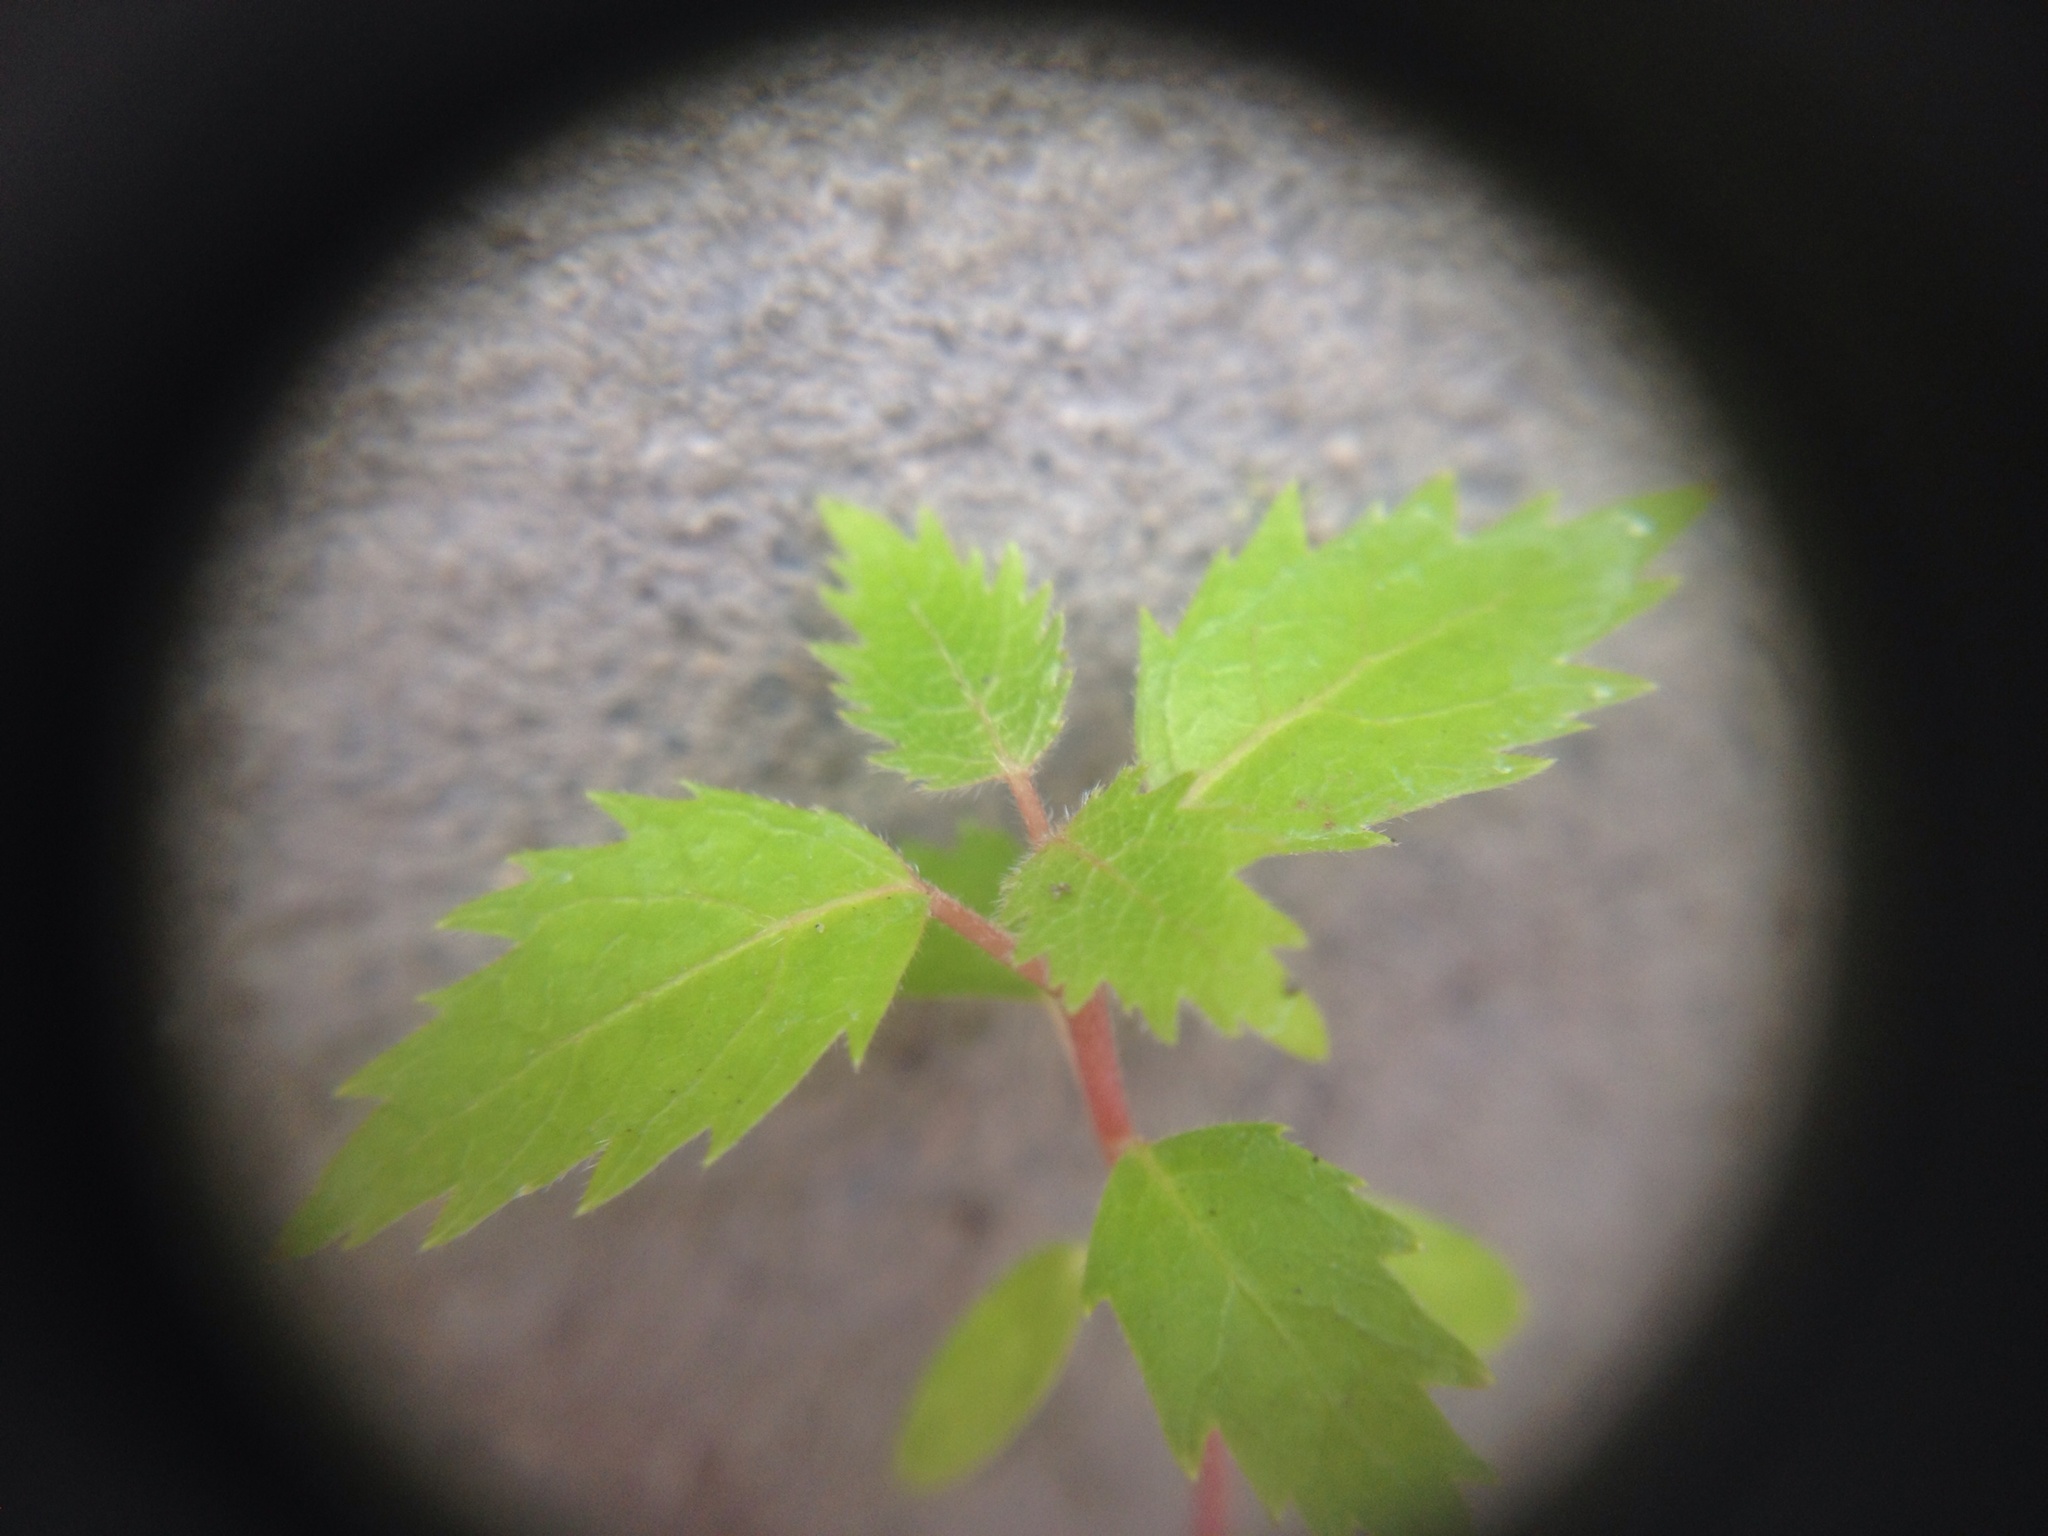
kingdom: Plantae
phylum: Tracheophyta
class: Magnoliopsida
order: Oxalidales
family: Elaeocarpaceae
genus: Aristotelia
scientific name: Aristotelia serrata
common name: New zealand wineberry
